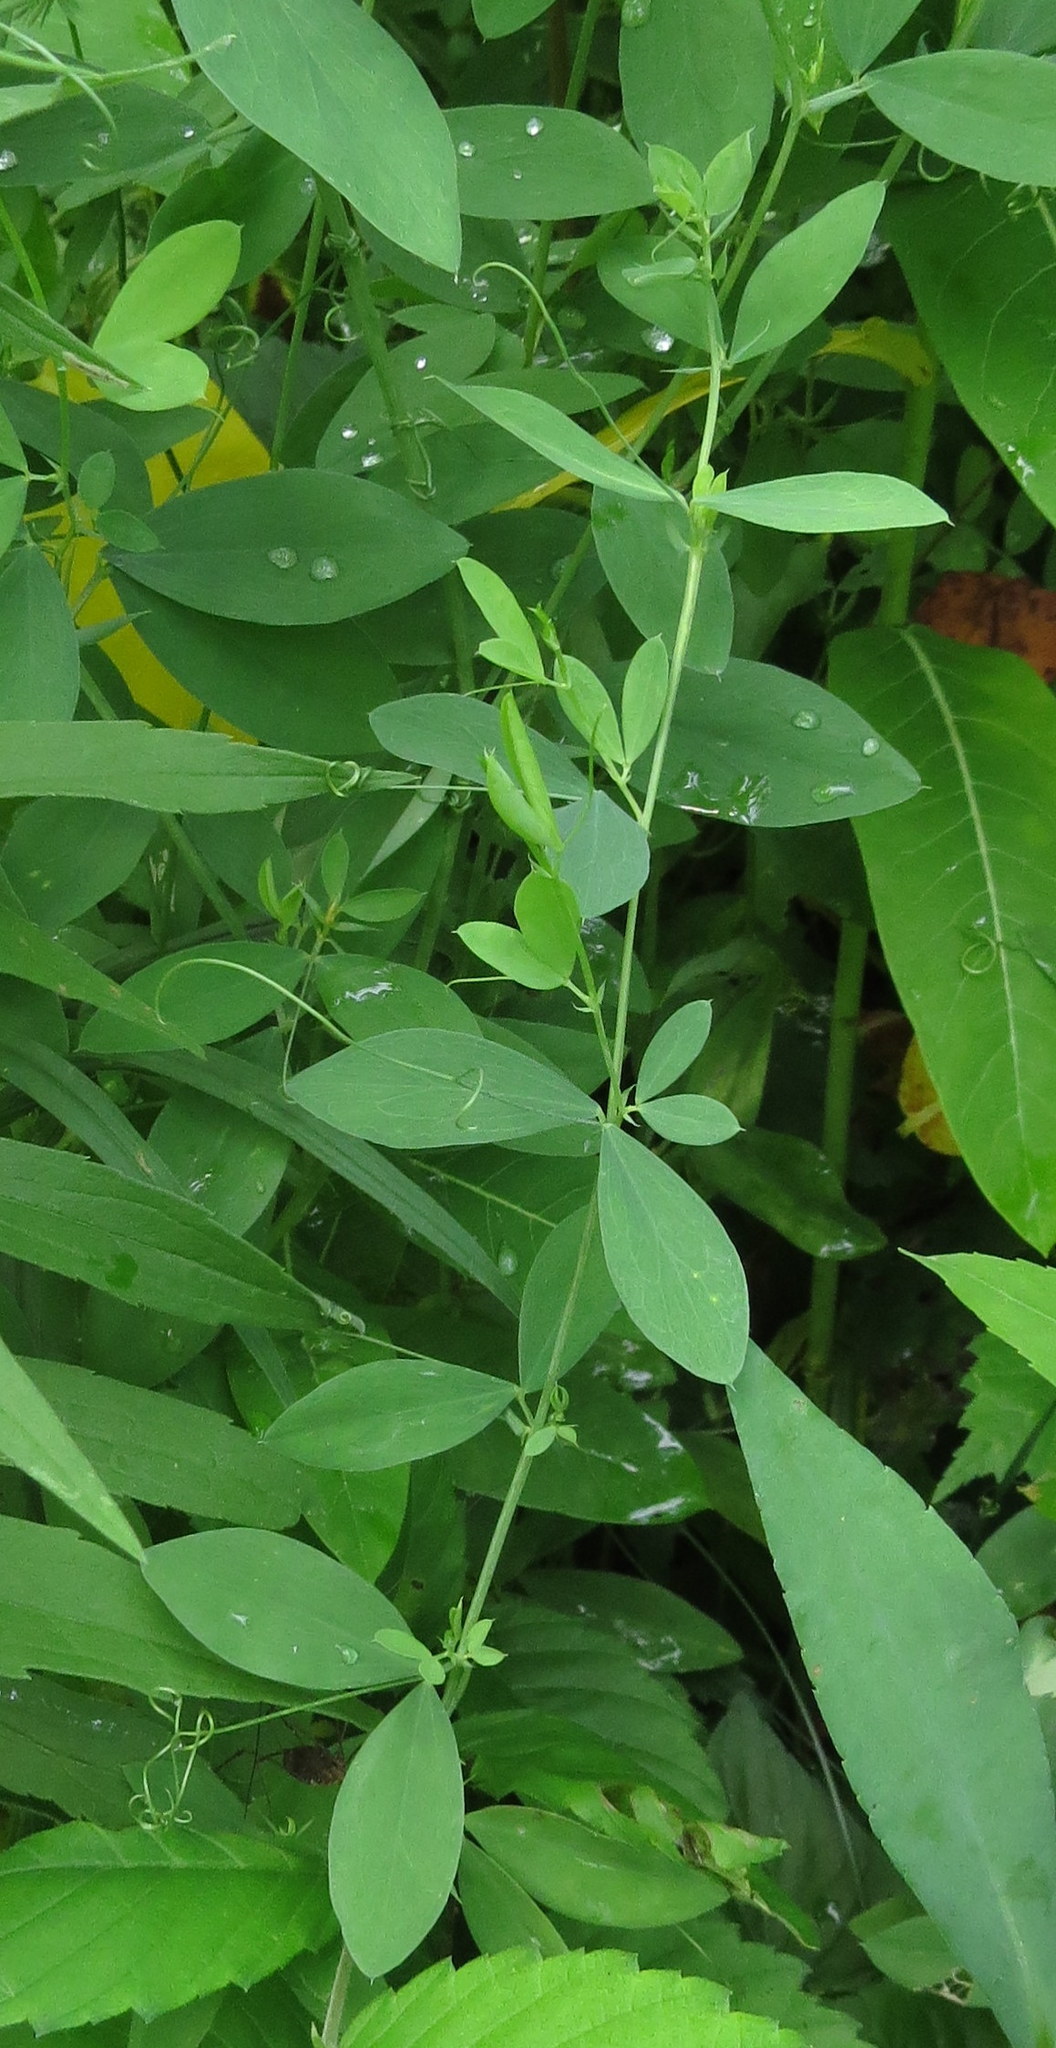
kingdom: Plantae
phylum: Tracheophyta
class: Magnoliopsida
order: Fabales
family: Fabaceae
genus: Lathyrus
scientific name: Lathyrus tuberosus
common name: Tuberous pea
